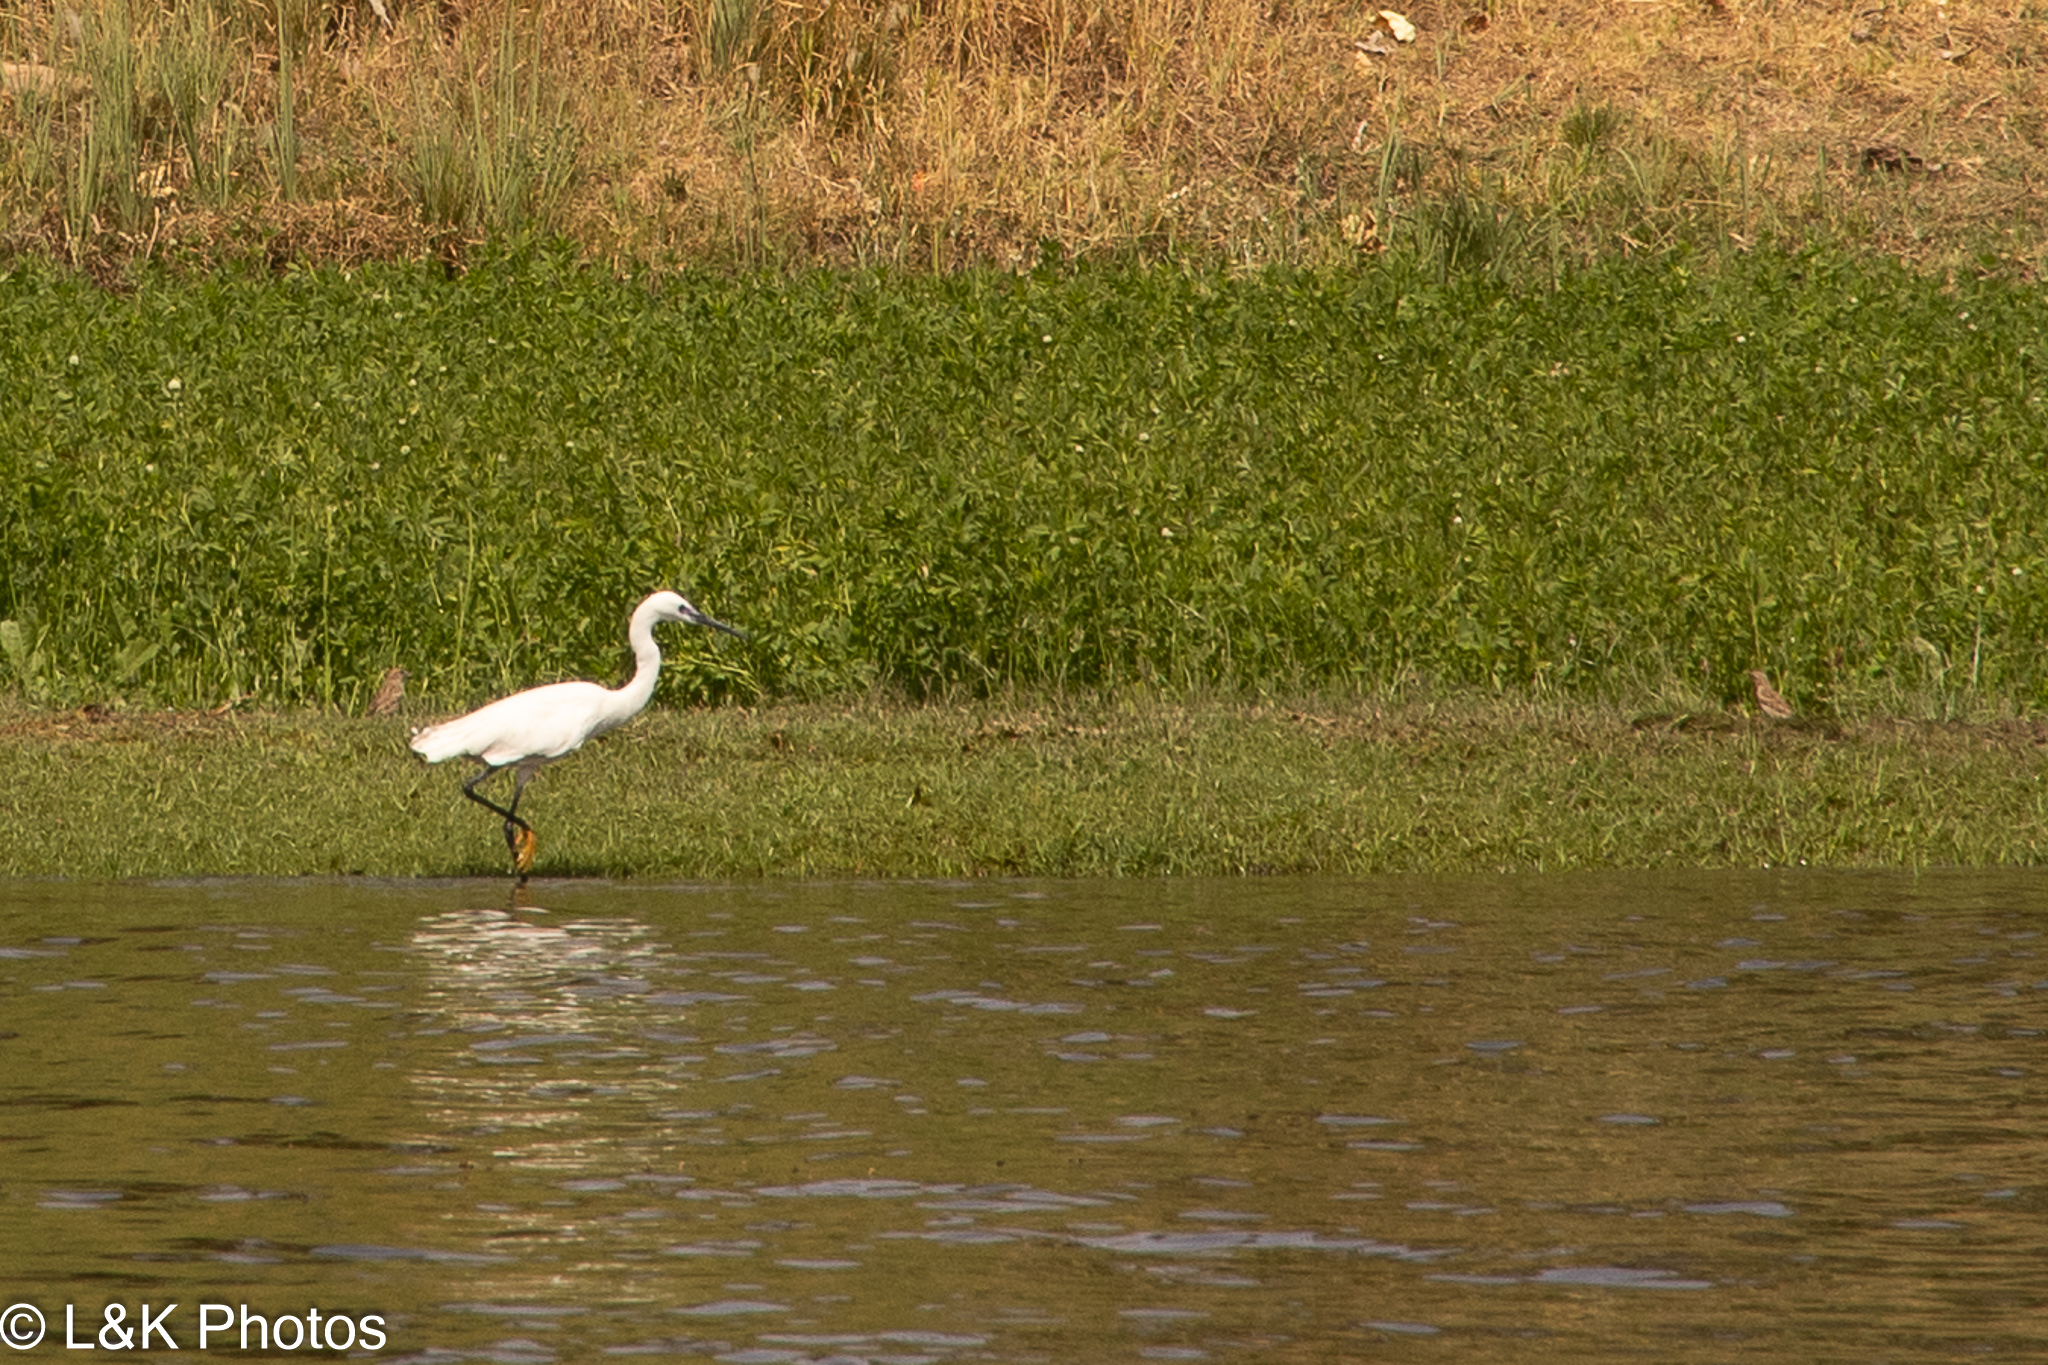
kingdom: Animalia
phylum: Chordata
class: Aves
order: Pelecaniformes
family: Ardeidae
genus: Egretta
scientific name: Egretta garzetta
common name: Little egret
